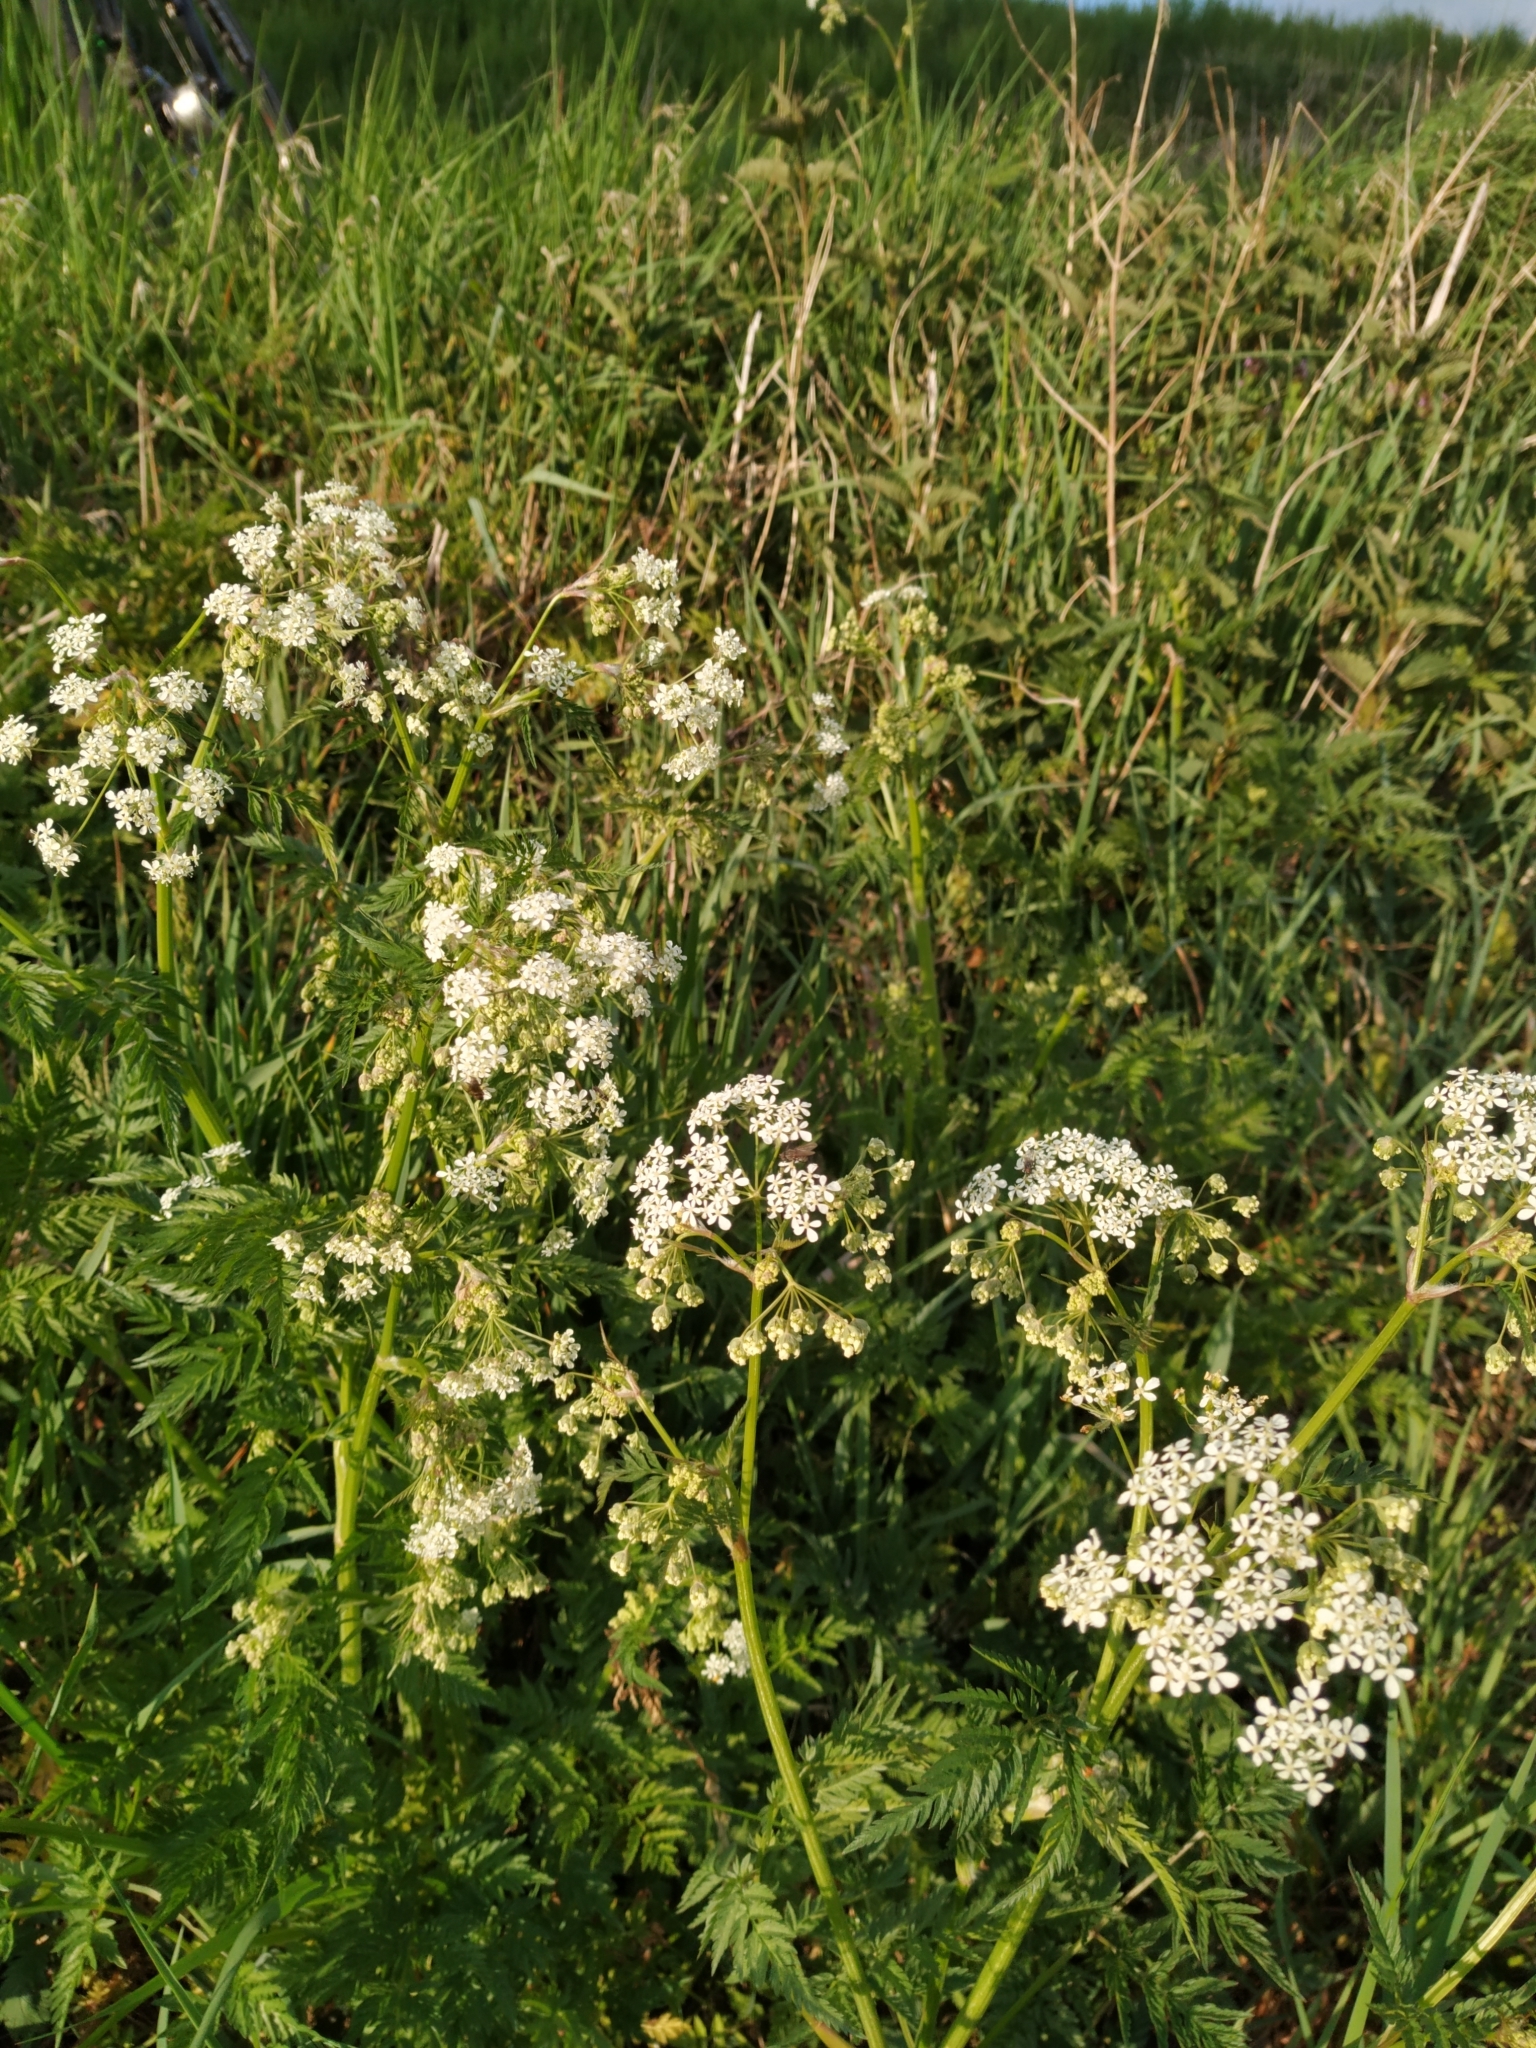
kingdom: Plantae
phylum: Tracheophyta
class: Magnoliopsida
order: Apiales
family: Apiaceae
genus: Anthriscus
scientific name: Anthriscus sylvestris
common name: Cow parsley
